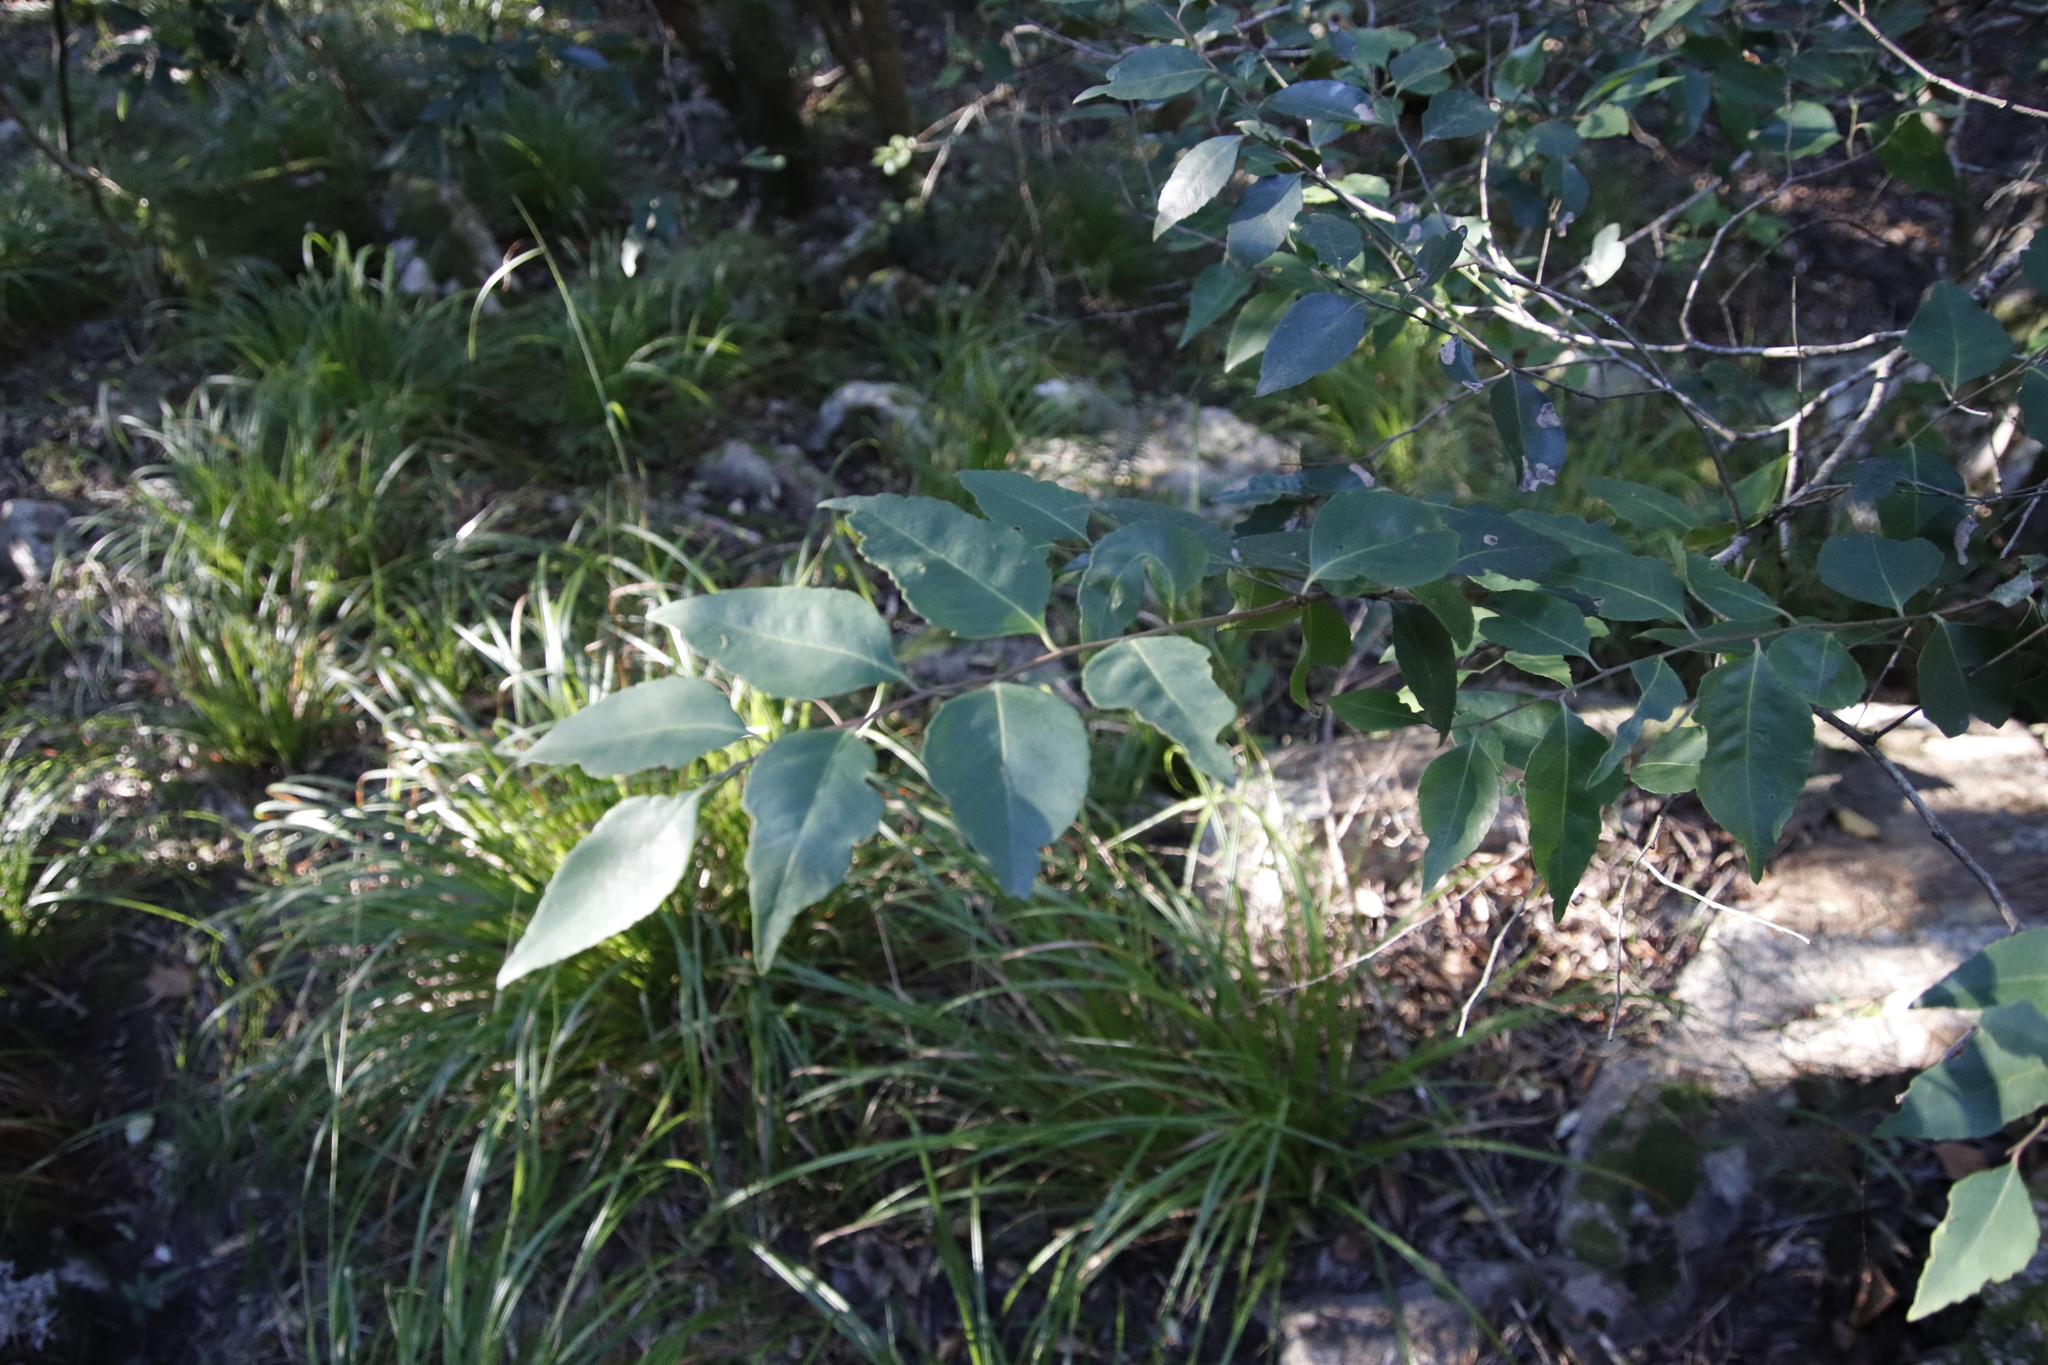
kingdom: Plantae
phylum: Tracheophyta
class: Magnoliopsida
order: Celastrales
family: Celastraceae
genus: Gymnosporia
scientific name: Gymnosporia acuminata
